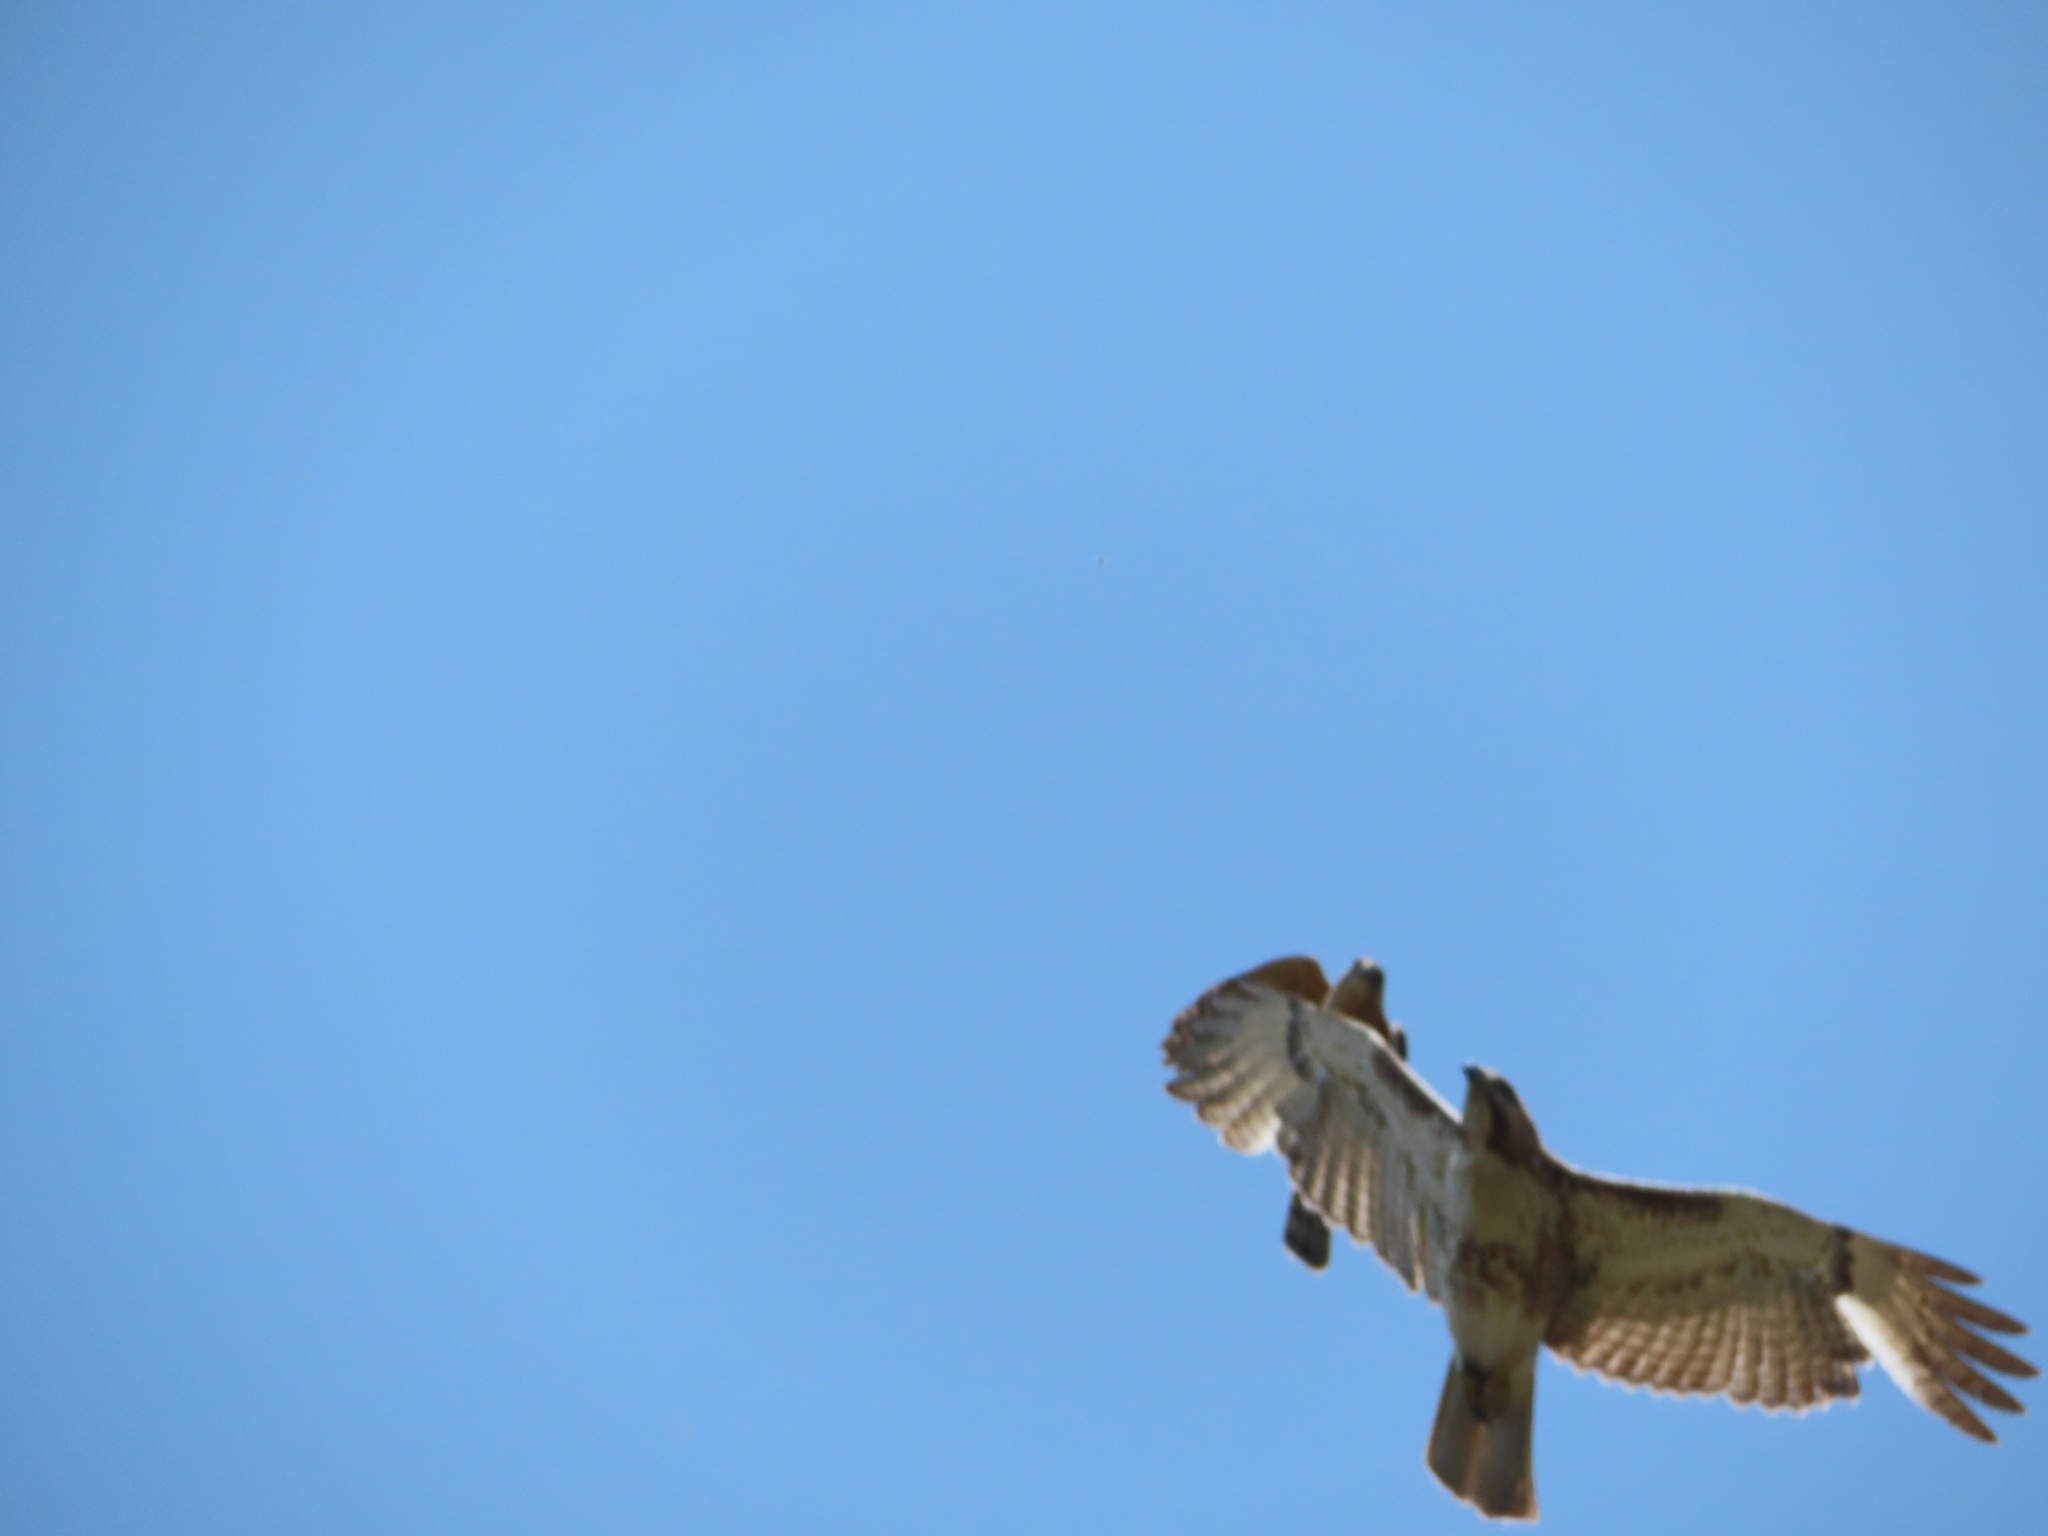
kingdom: Animalia
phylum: Chordata
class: Aves
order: Accipitriformes
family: Accipitridae
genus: Accipiter
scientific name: Accipiter cooperii
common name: Cooper's hawk
